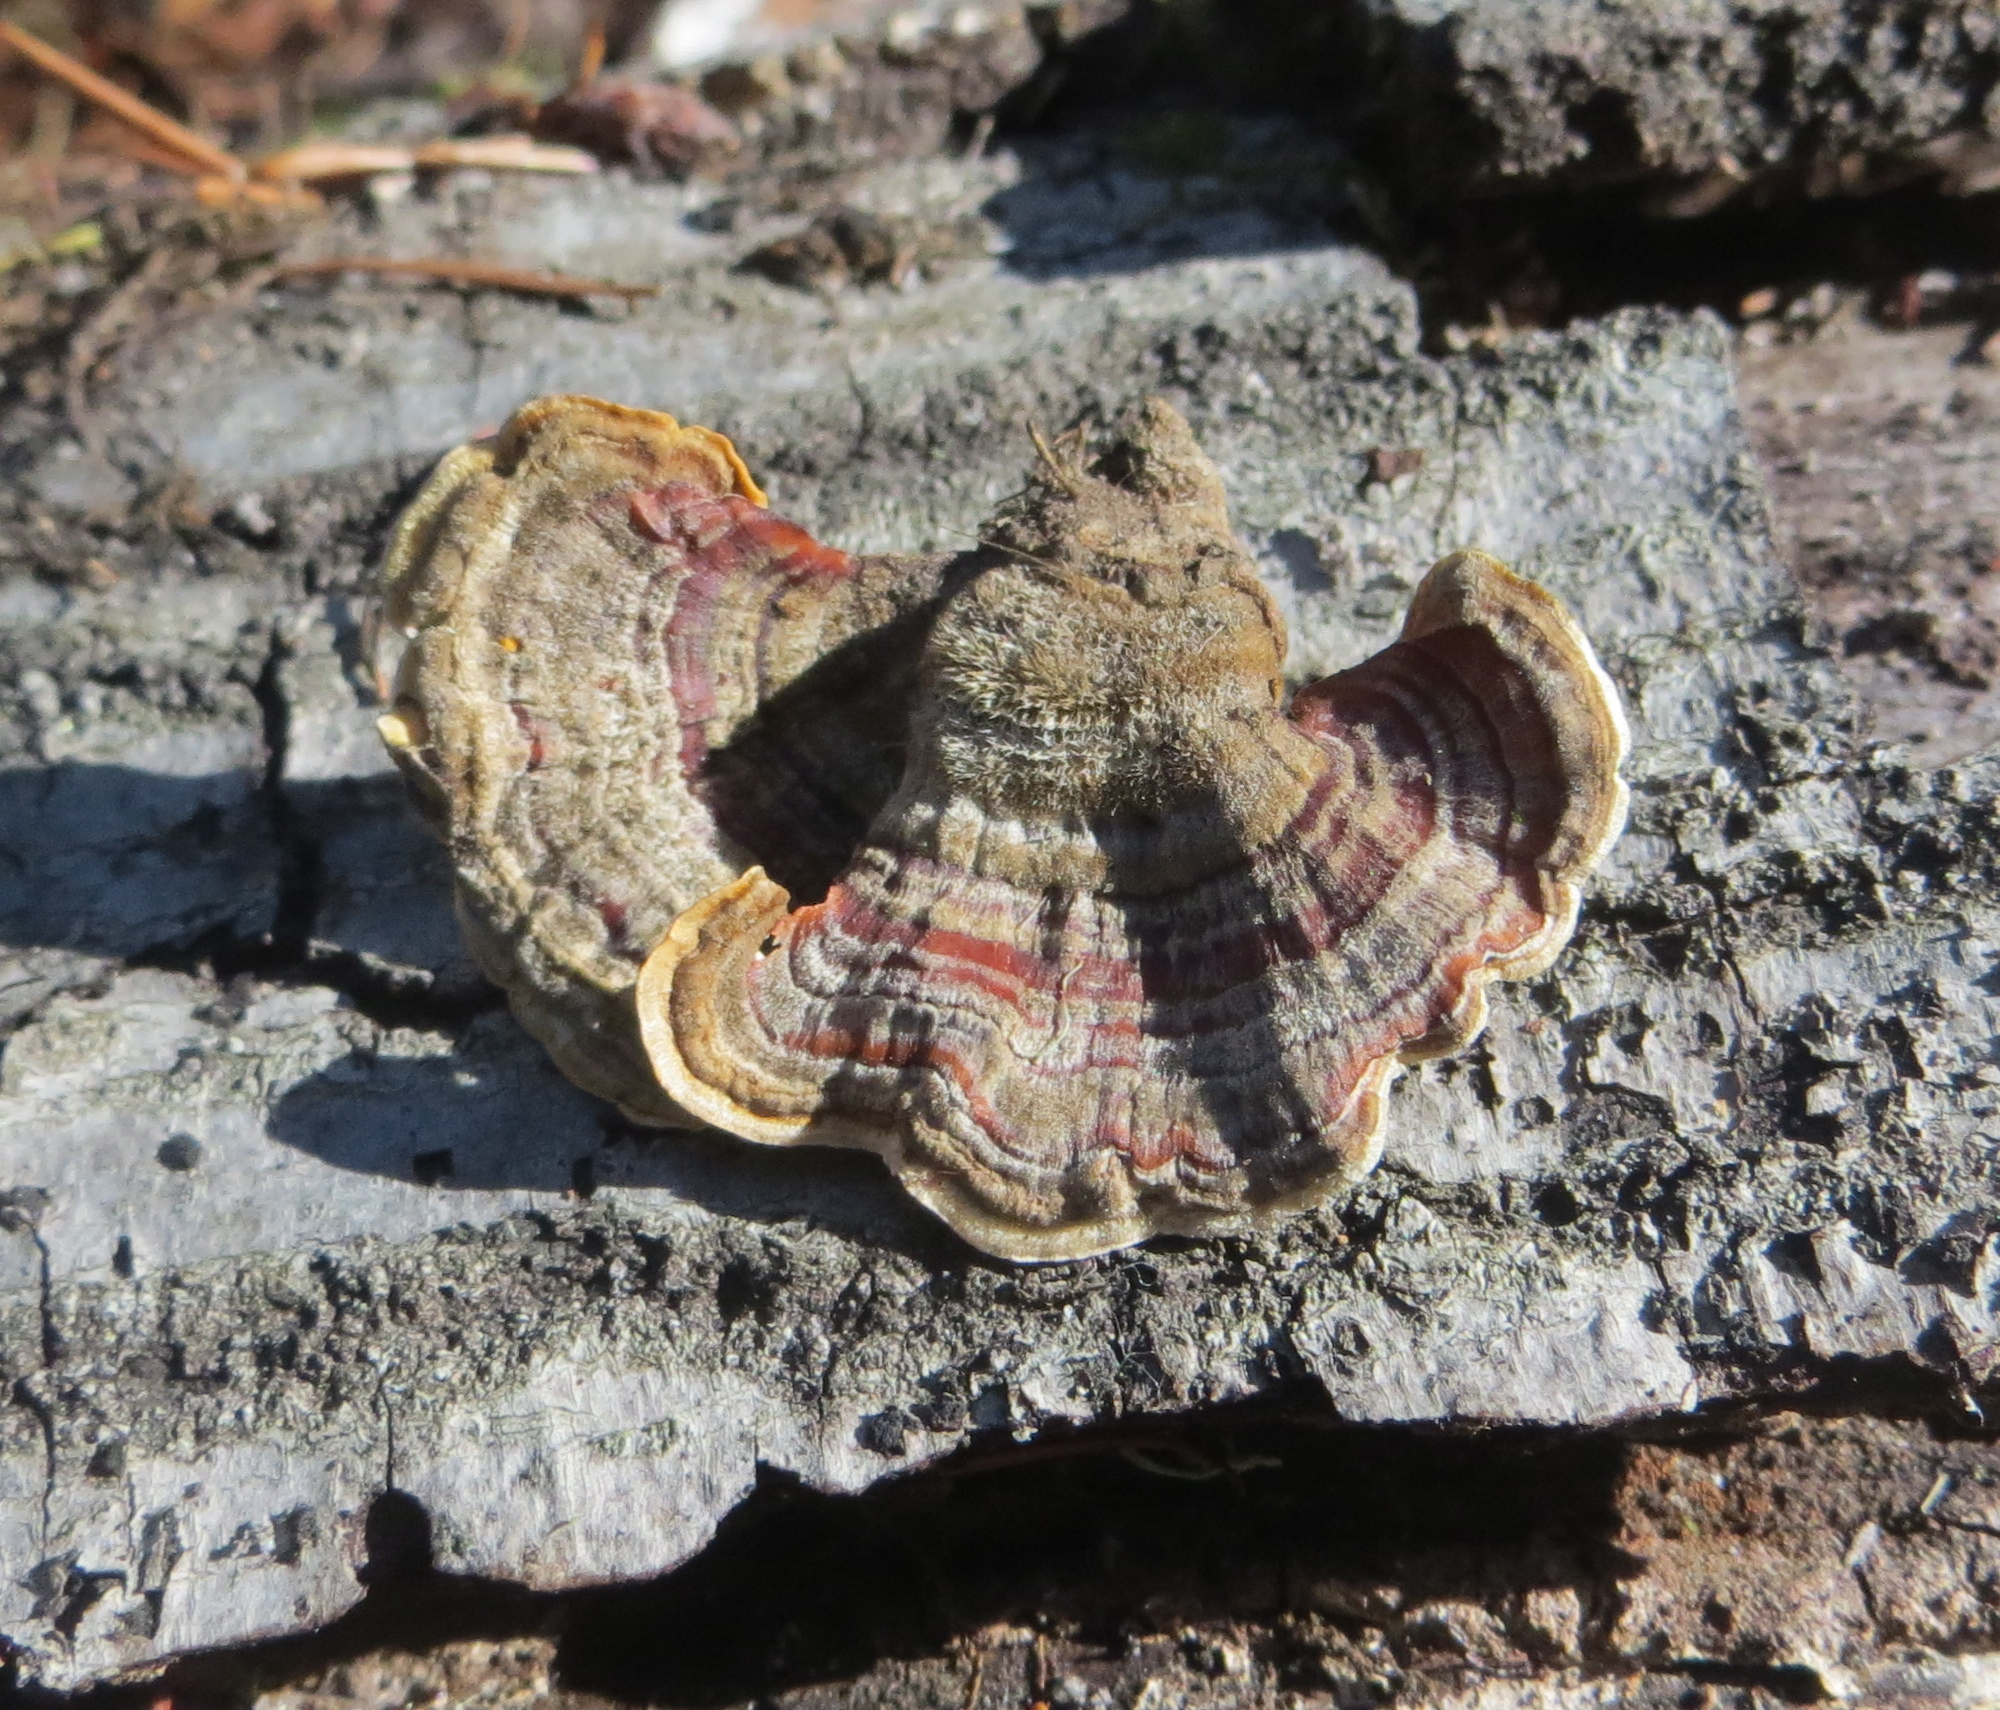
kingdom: Fungi
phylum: Basidiomycota
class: Agaricomycetes
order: Russulales
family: Stereaceae
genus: Stereum
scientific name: Stereum hirsutum
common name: Hairy curtain crust
